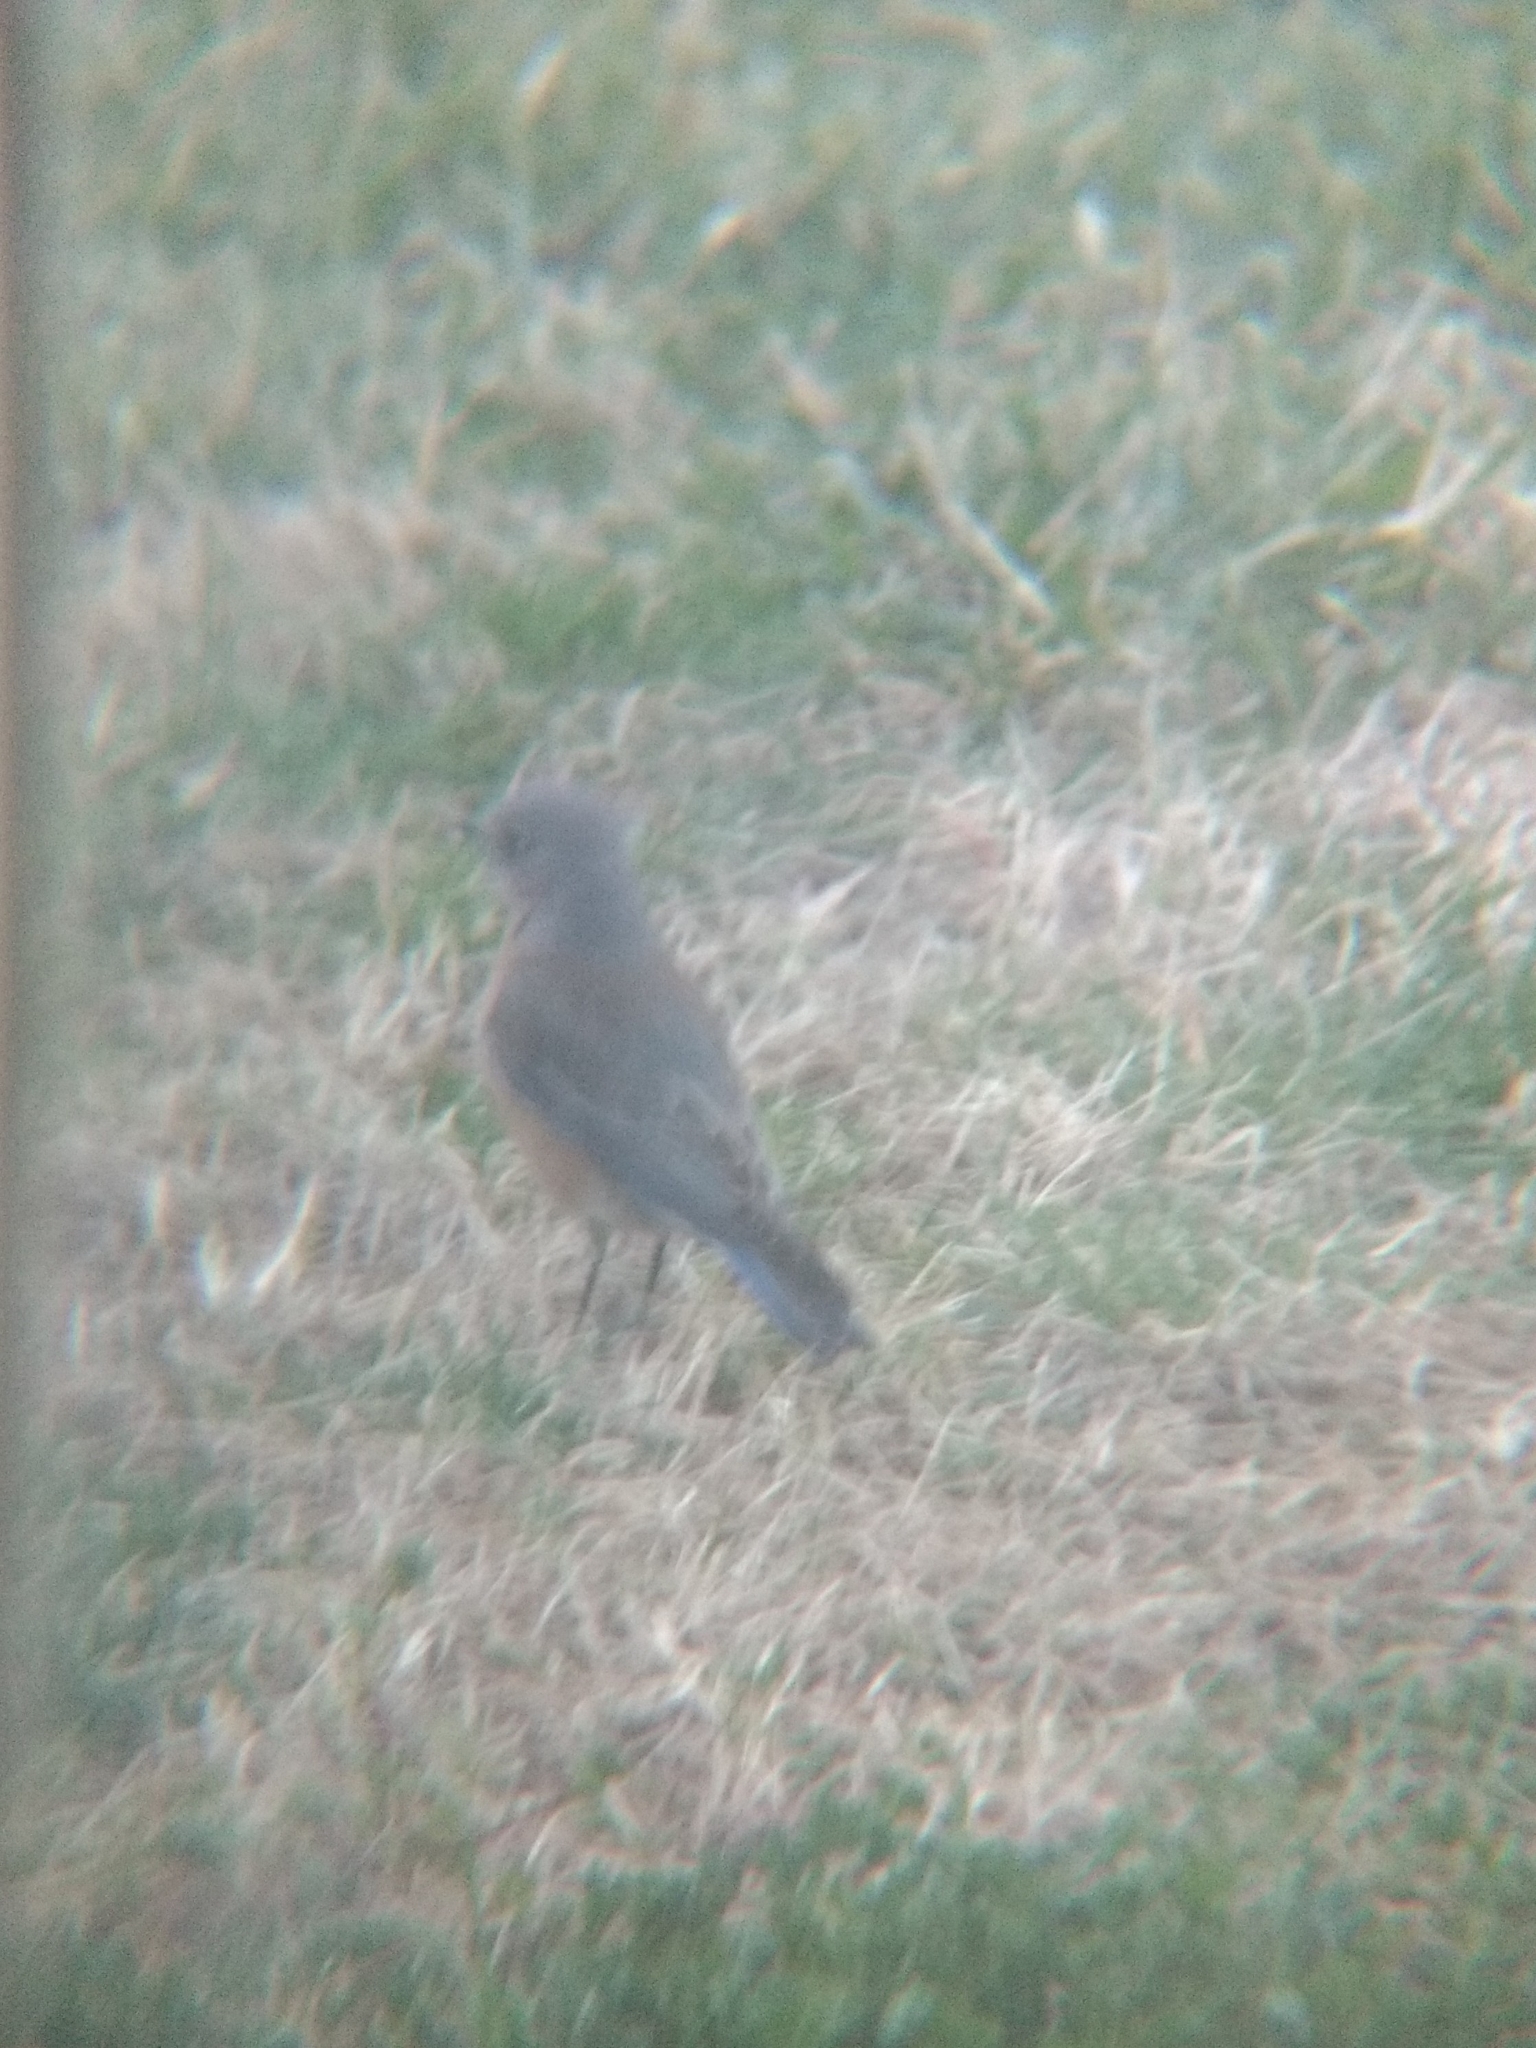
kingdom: Animalia
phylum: Chordata
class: Aves
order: Passeriformes
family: Turdidae
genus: Sialia
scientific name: Sialia mexicana
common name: Western bluebird
